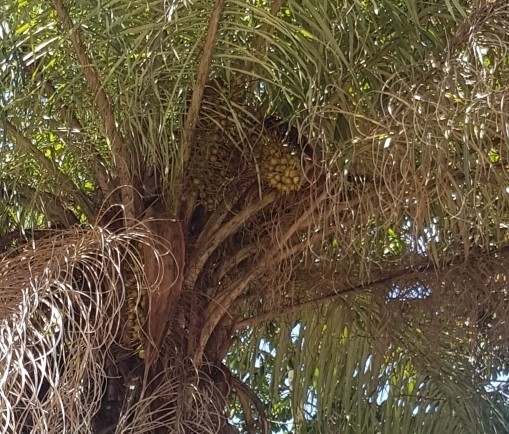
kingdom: Plantae
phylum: Tracheophyta
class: Liliopsida
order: Arecales
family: Arecaceae
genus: Acrocomia
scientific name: Acrocomia aculeata
